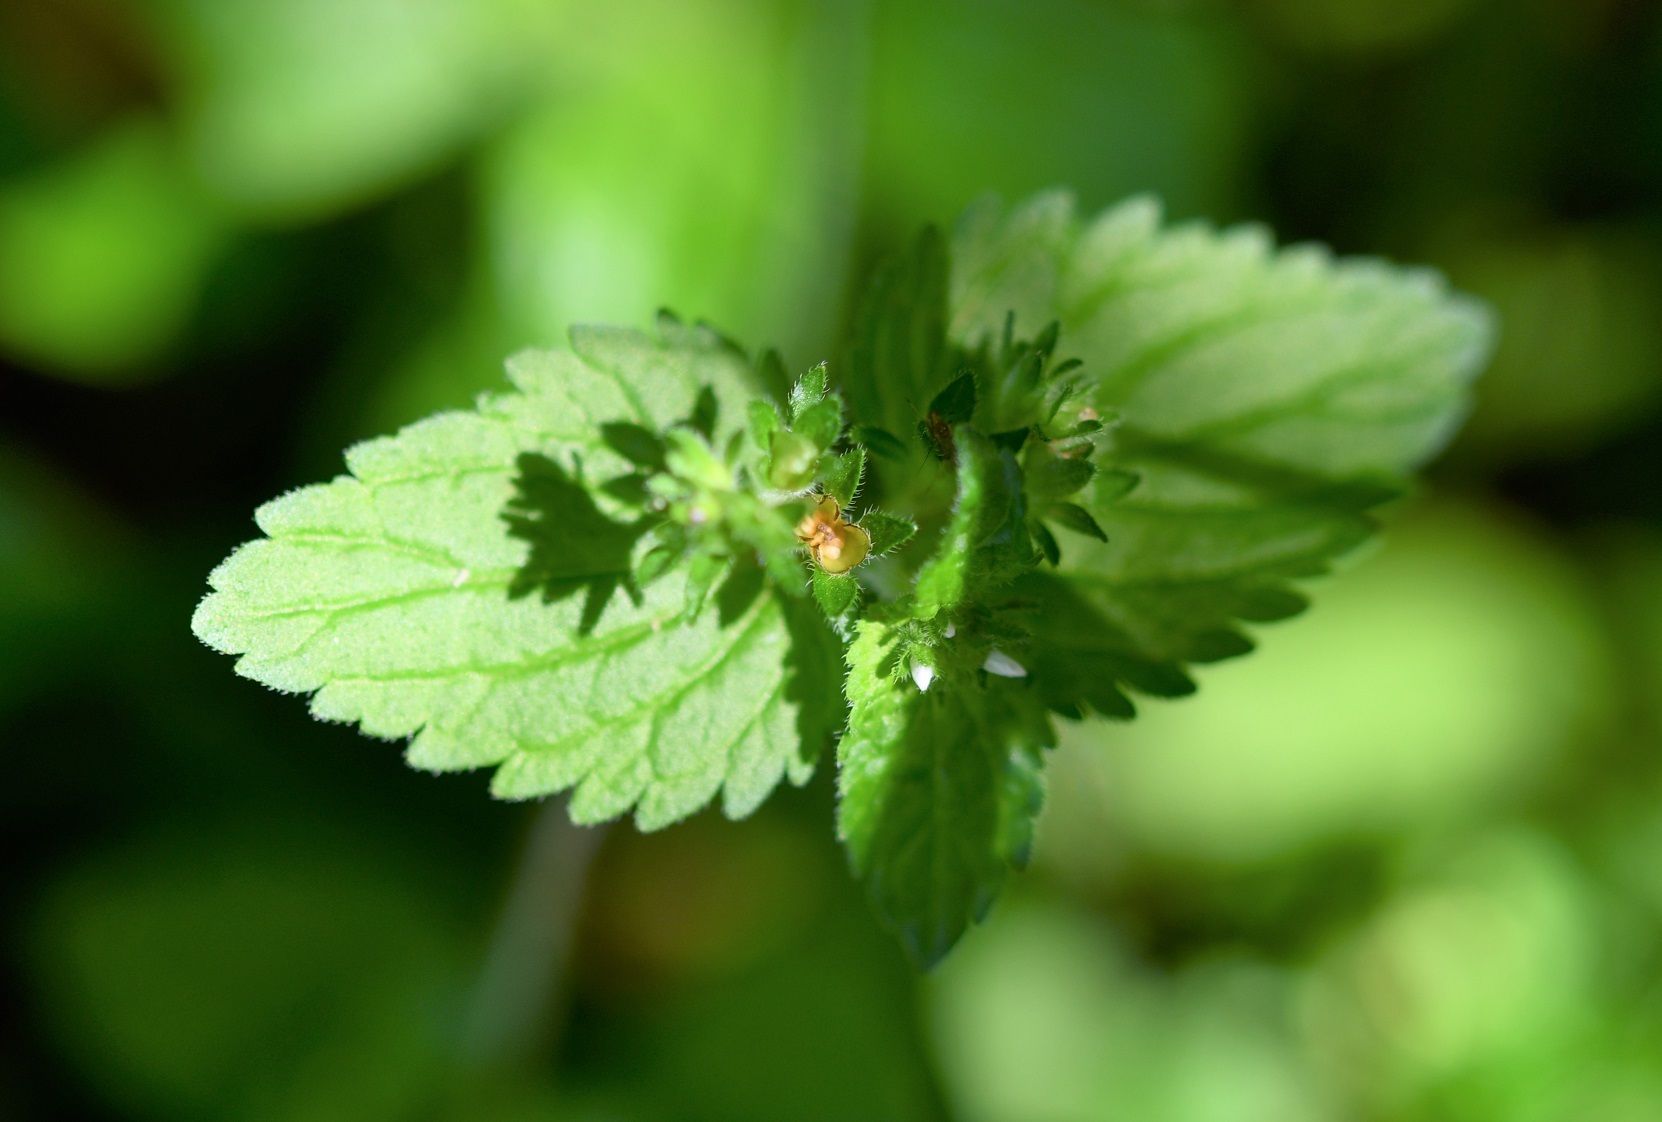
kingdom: Plantae
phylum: Tracheophyta
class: Magnoliopsida
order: Lamiales
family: Plantaginaceae
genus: Veronica
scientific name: Veronica javanica
